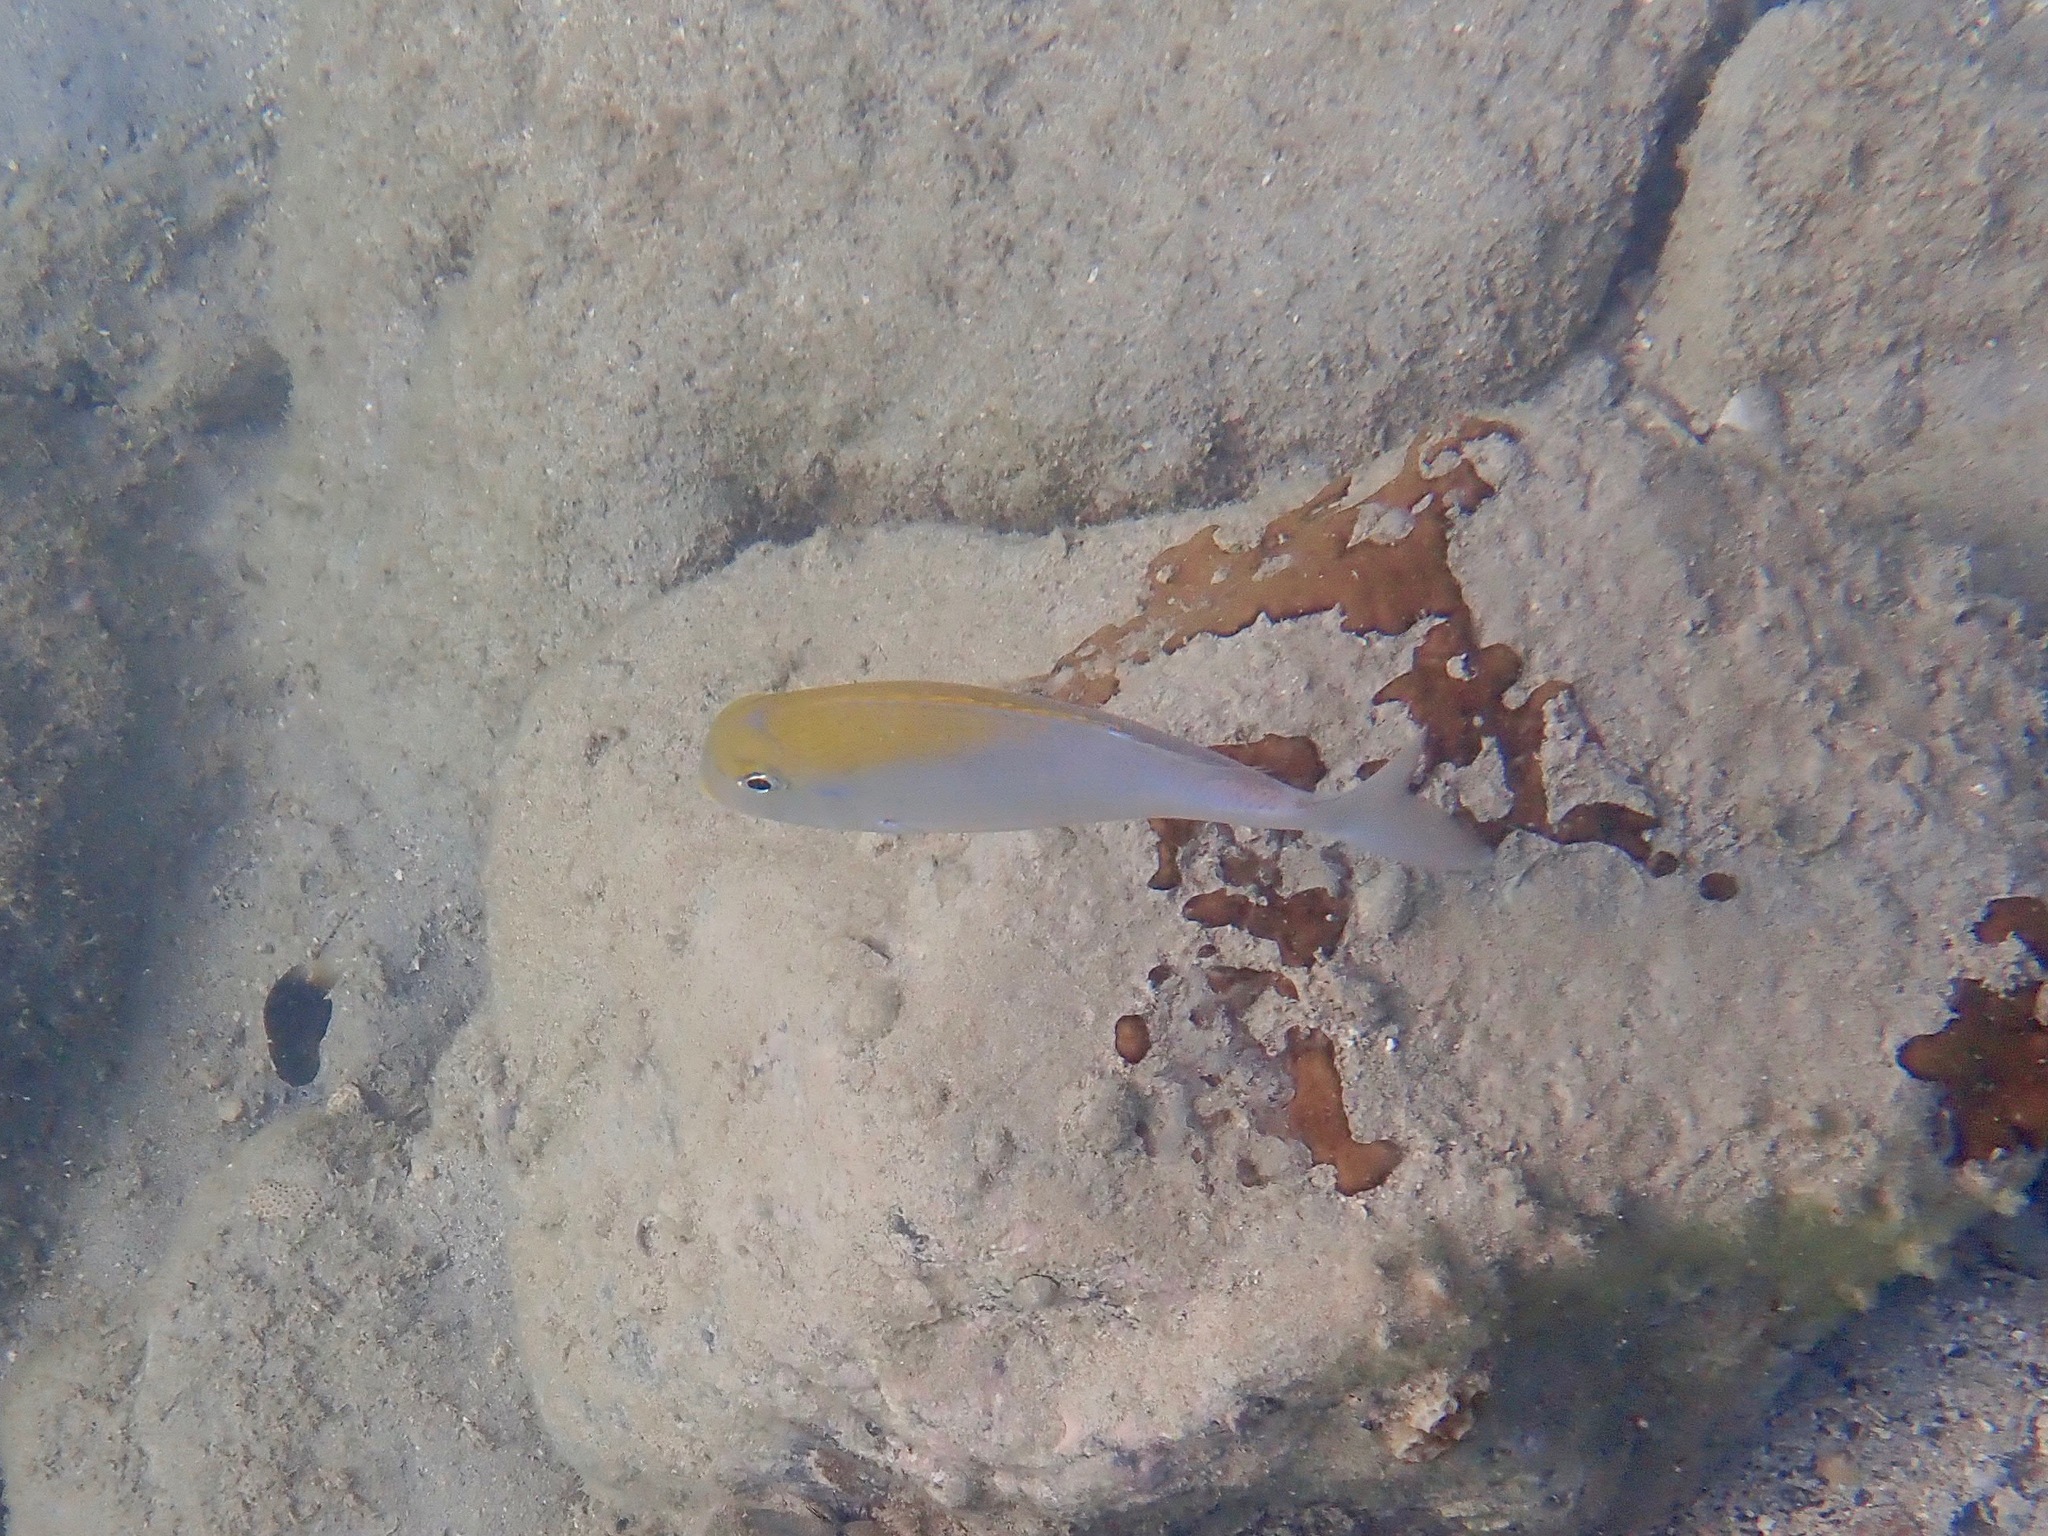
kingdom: Animalia
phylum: Chordata
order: Perciformes
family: Sparidae
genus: Calamus
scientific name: Calamus pennatula
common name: Pluma
